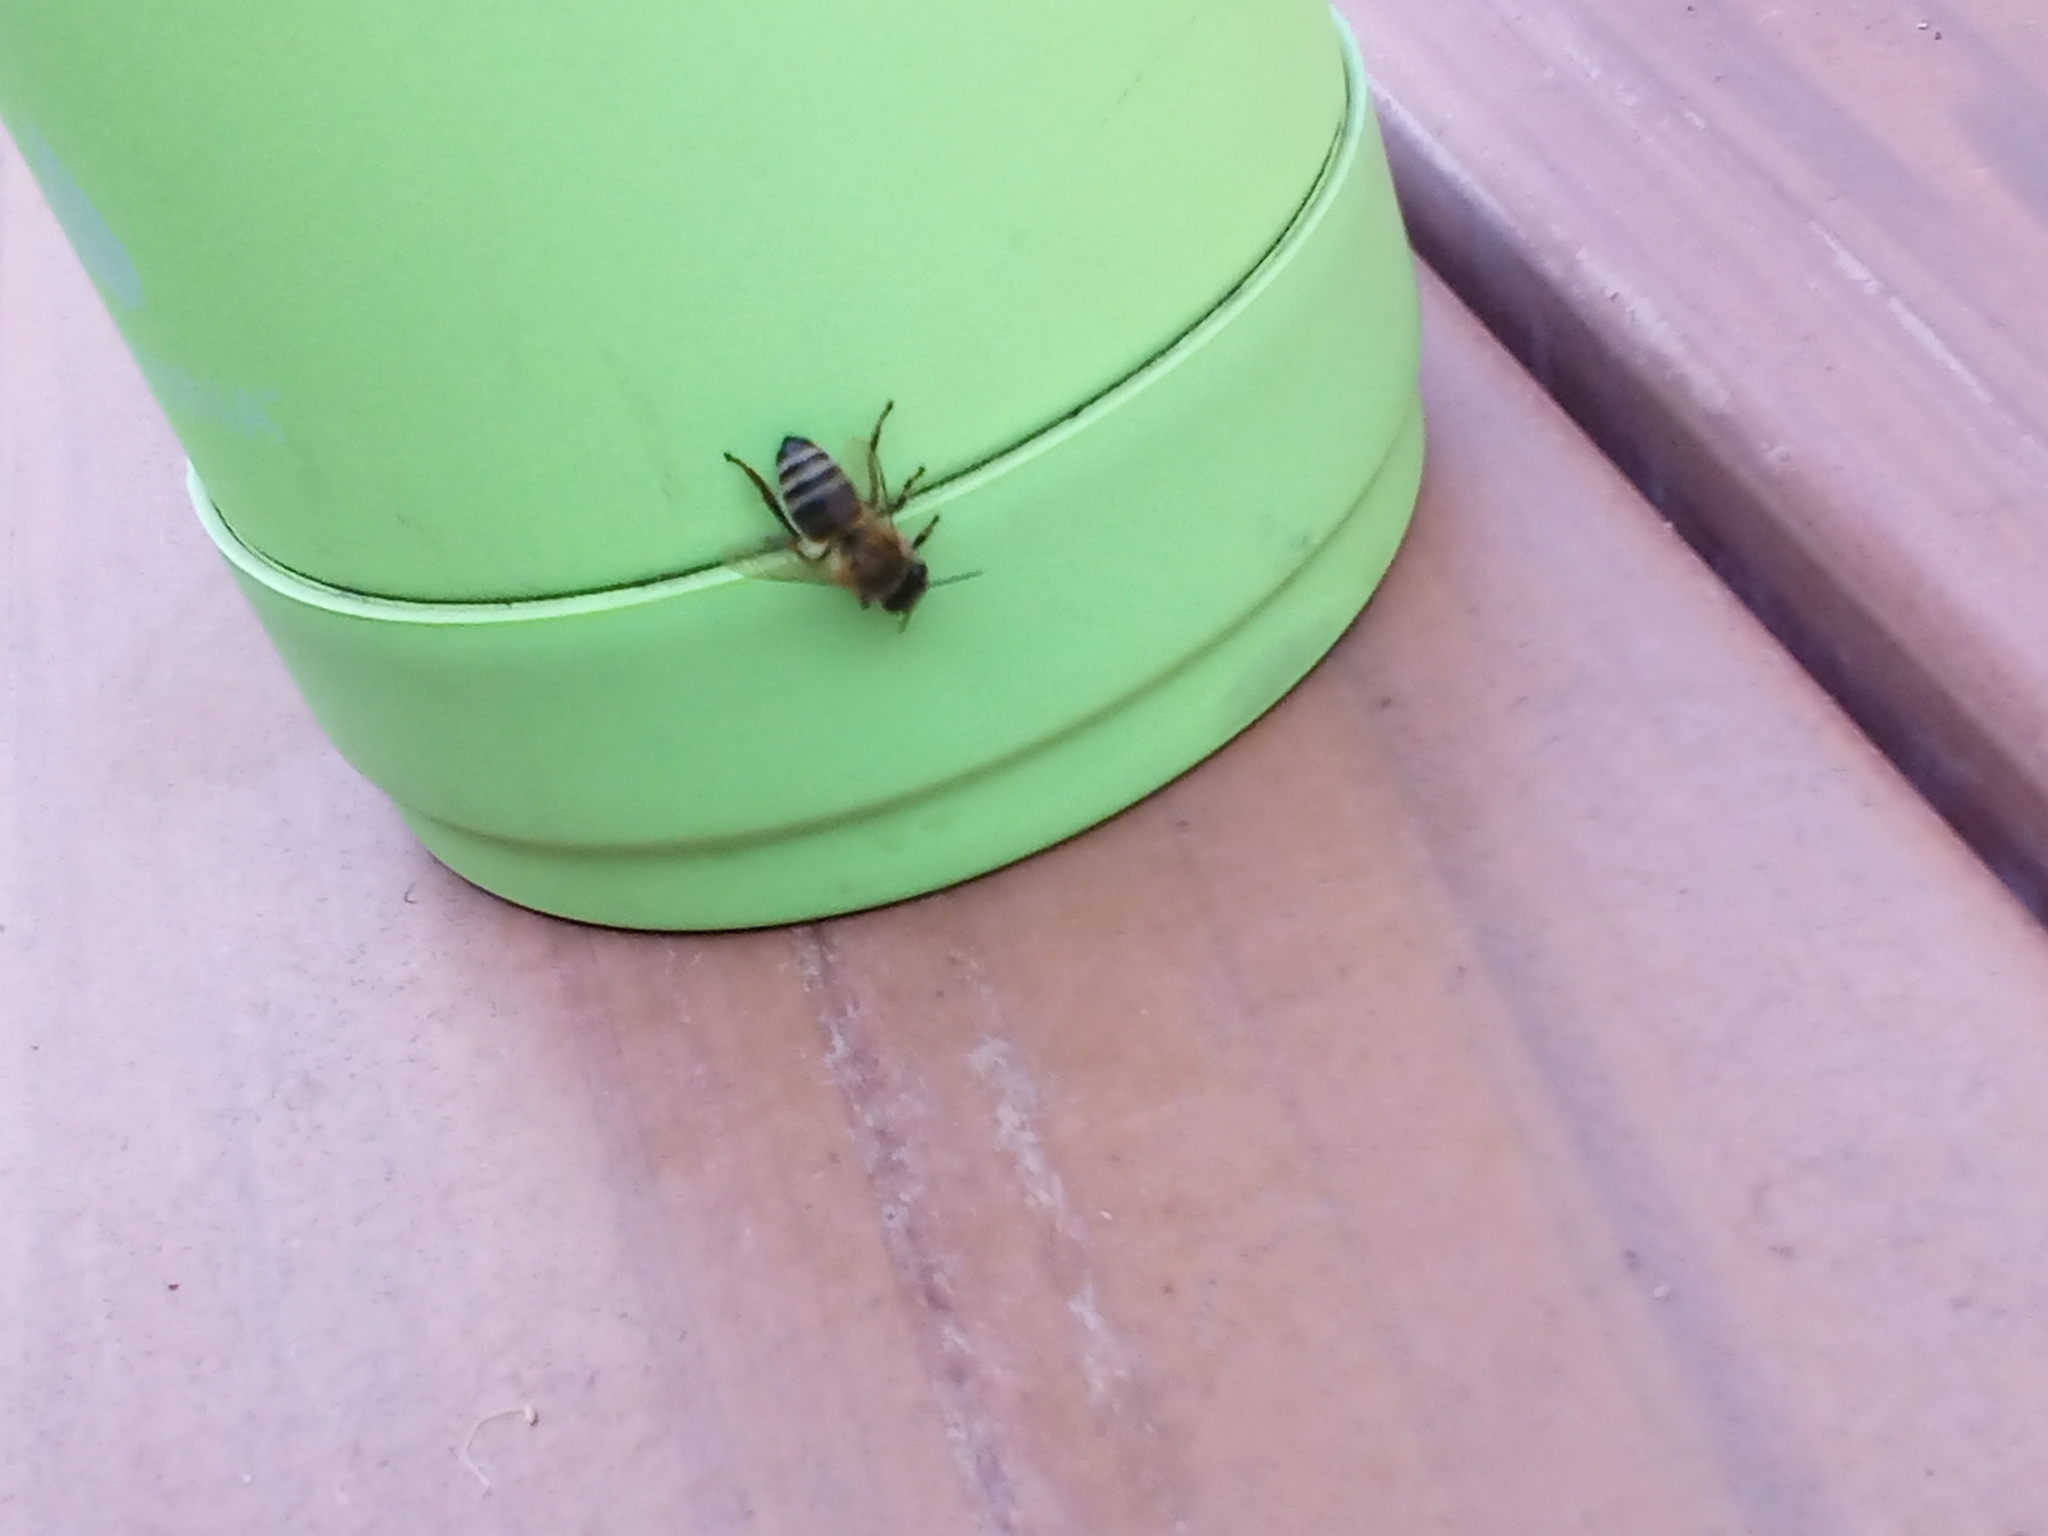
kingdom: Animalia
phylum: Arthropoda
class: Insecta
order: Hymenoptera
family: Apidae
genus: Apis
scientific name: Apis mellifera
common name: Honey bee
